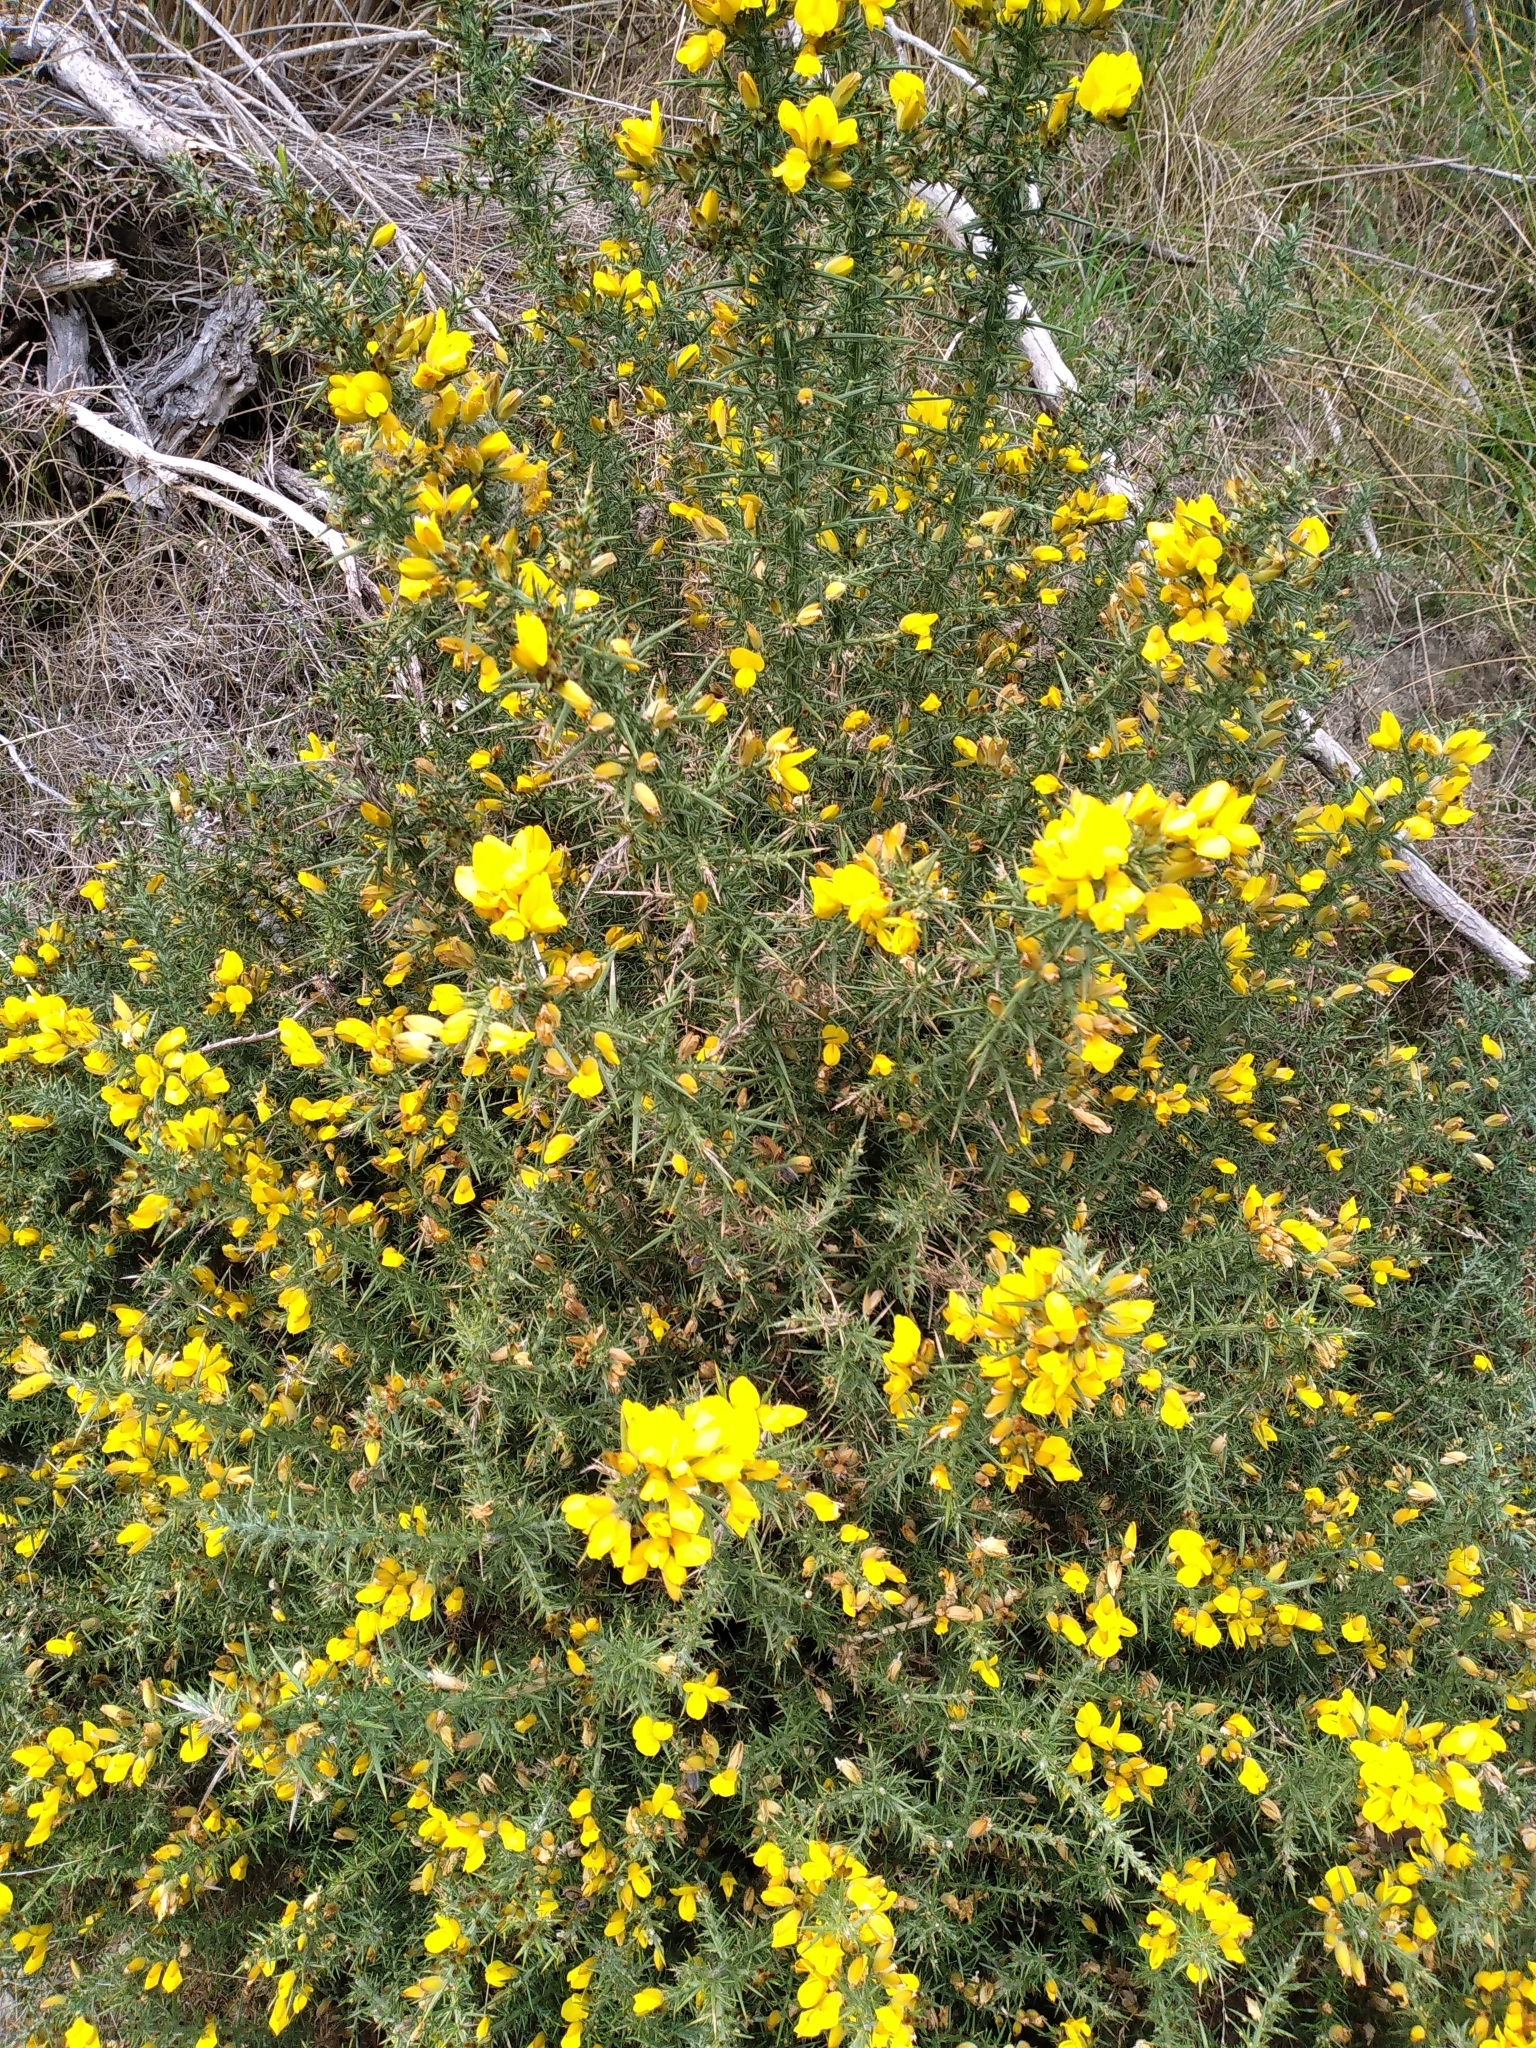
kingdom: Plantae
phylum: Tracheophyta
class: Magnoliopsida
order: Fabales
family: Fabaceae
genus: Ulex
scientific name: Ulex europaeus
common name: Common gorse
